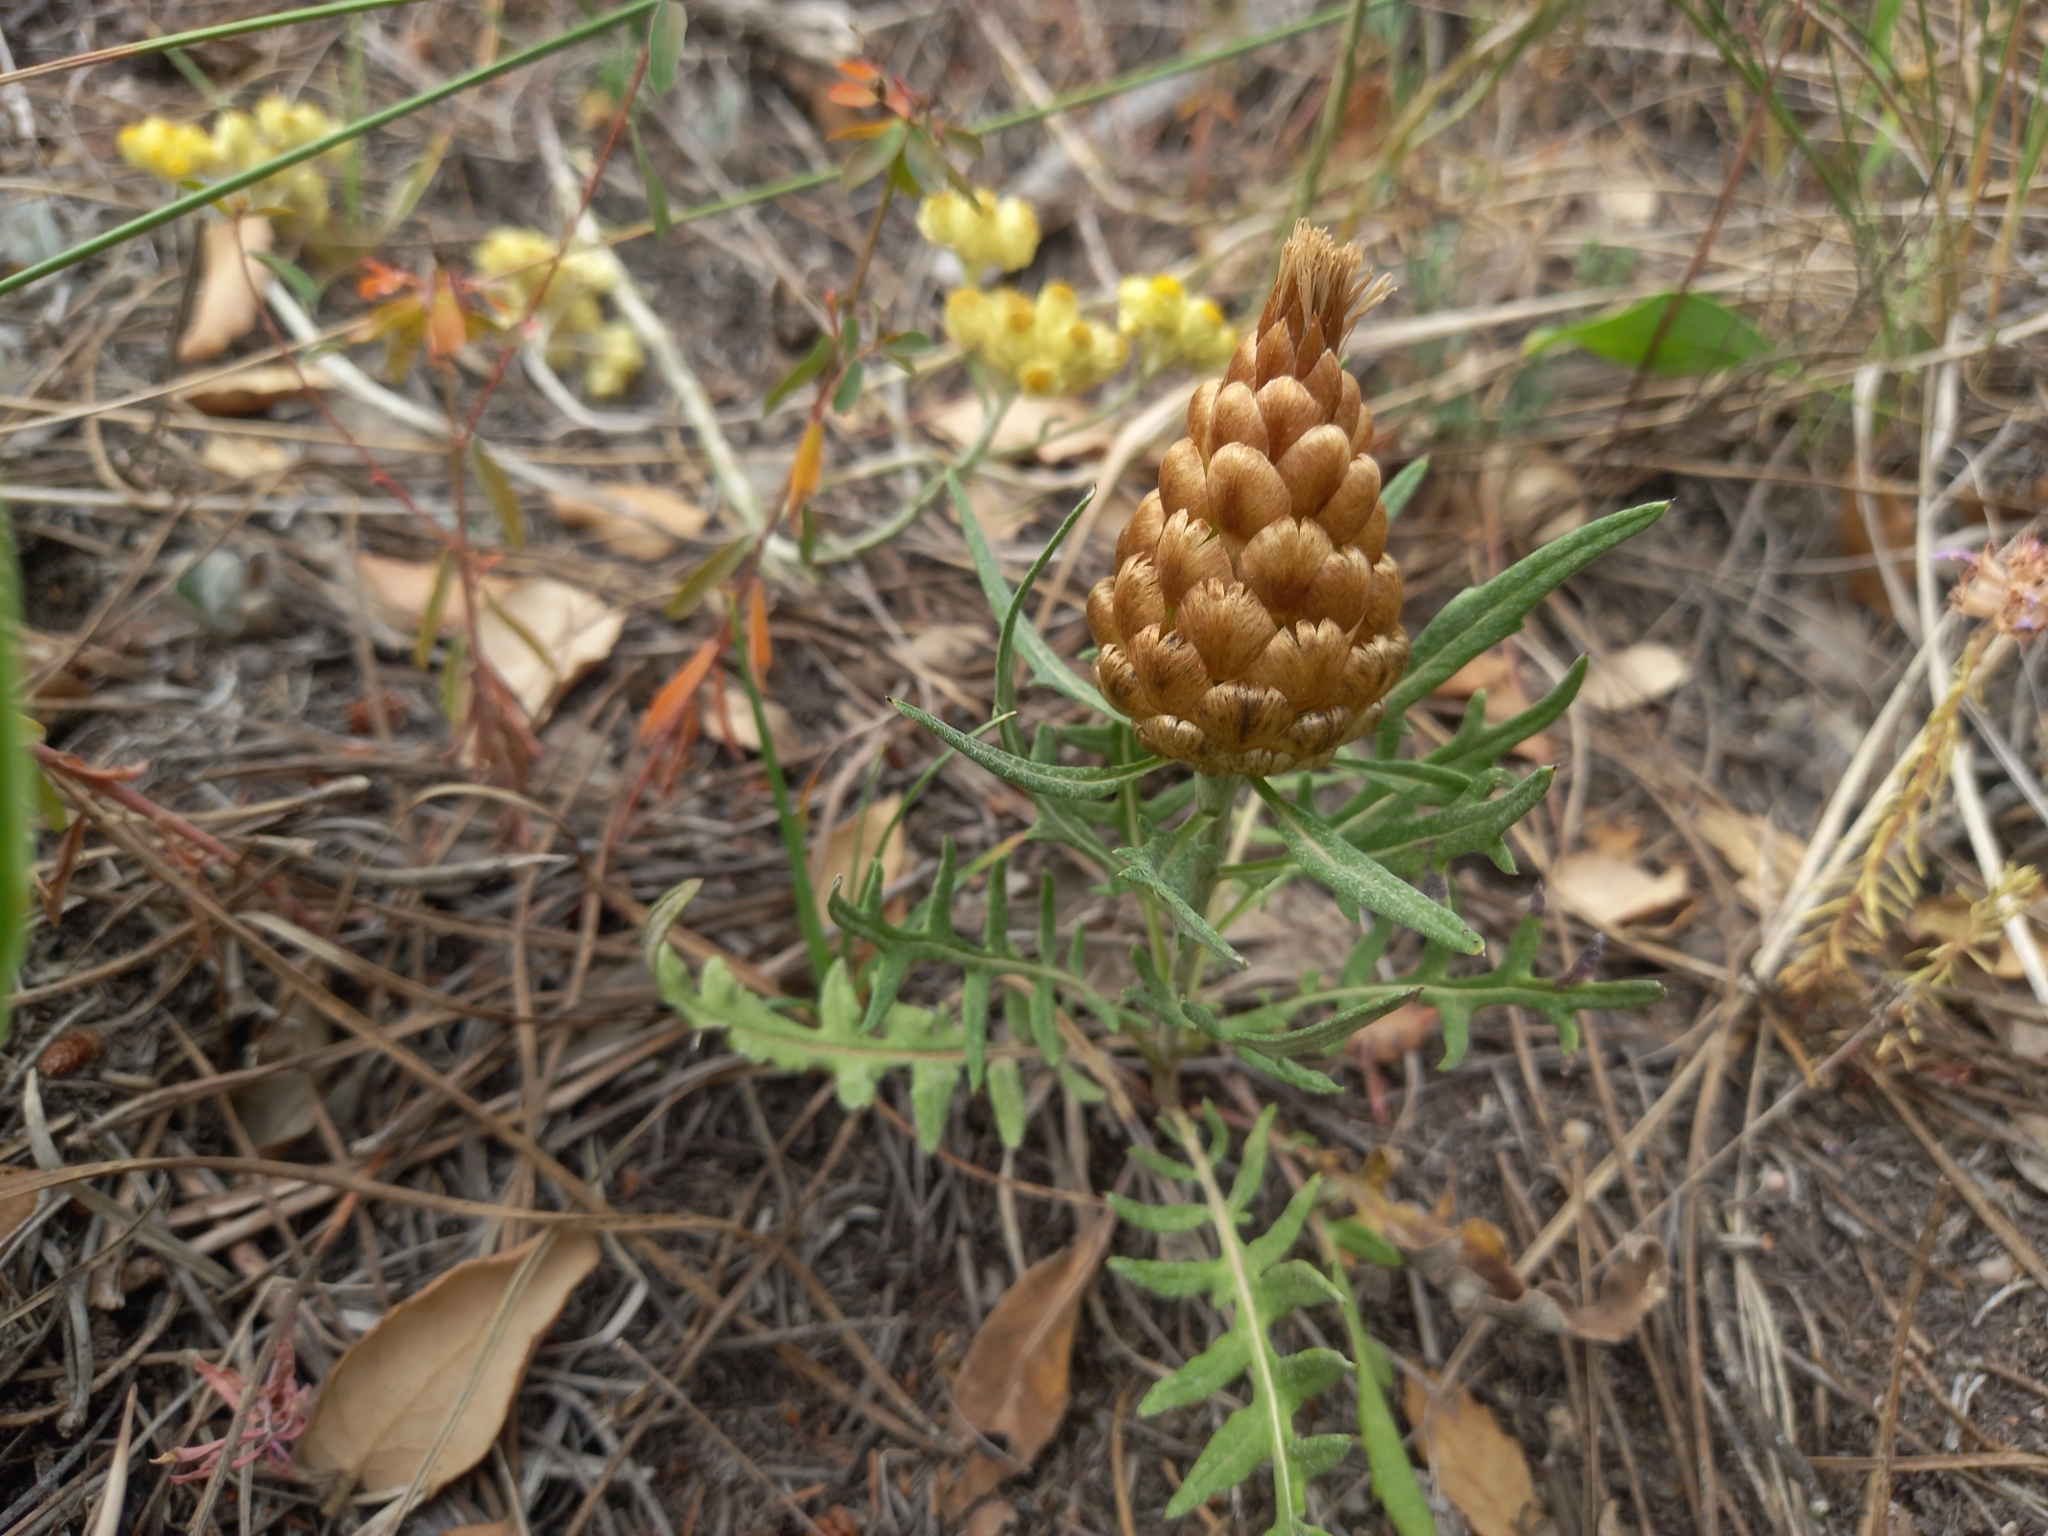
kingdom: Plantae
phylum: Tracheophyta
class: Magnoliopsida
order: Asterales
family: Asteraceae
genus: Leuzea
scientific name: Leuzea conifera
